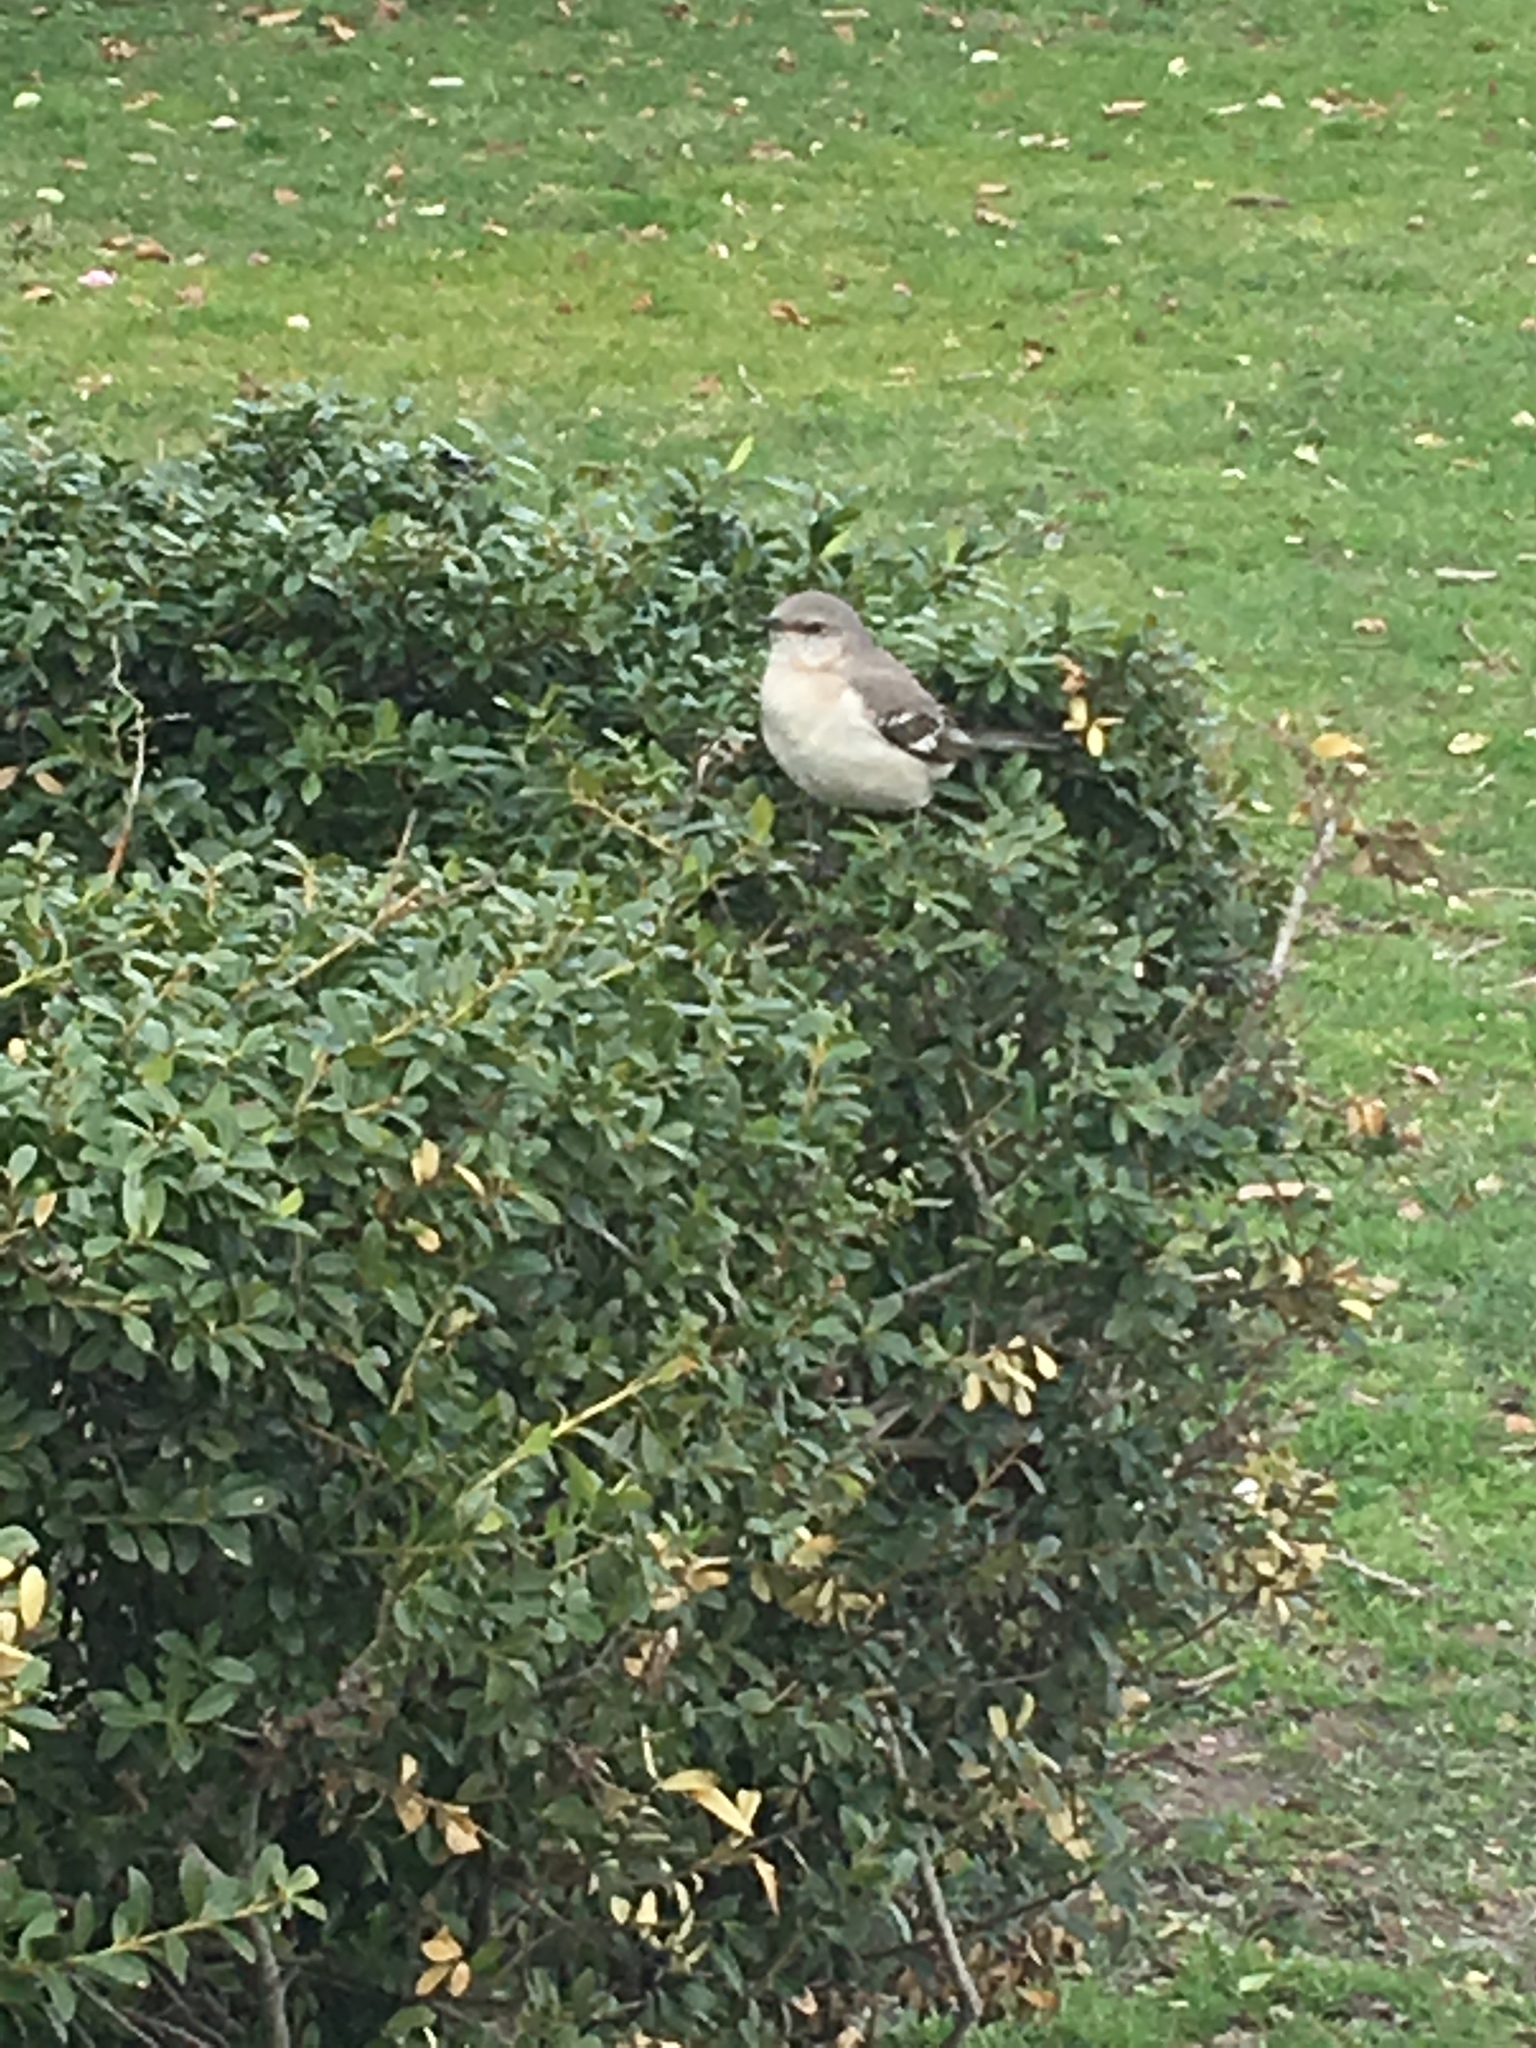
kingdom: Animalia
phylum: Chordata
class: Aves
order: Passeriformes
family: Mimidae
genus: Mimus
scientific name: Mimus polyglottos
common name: Northern mockingbird
